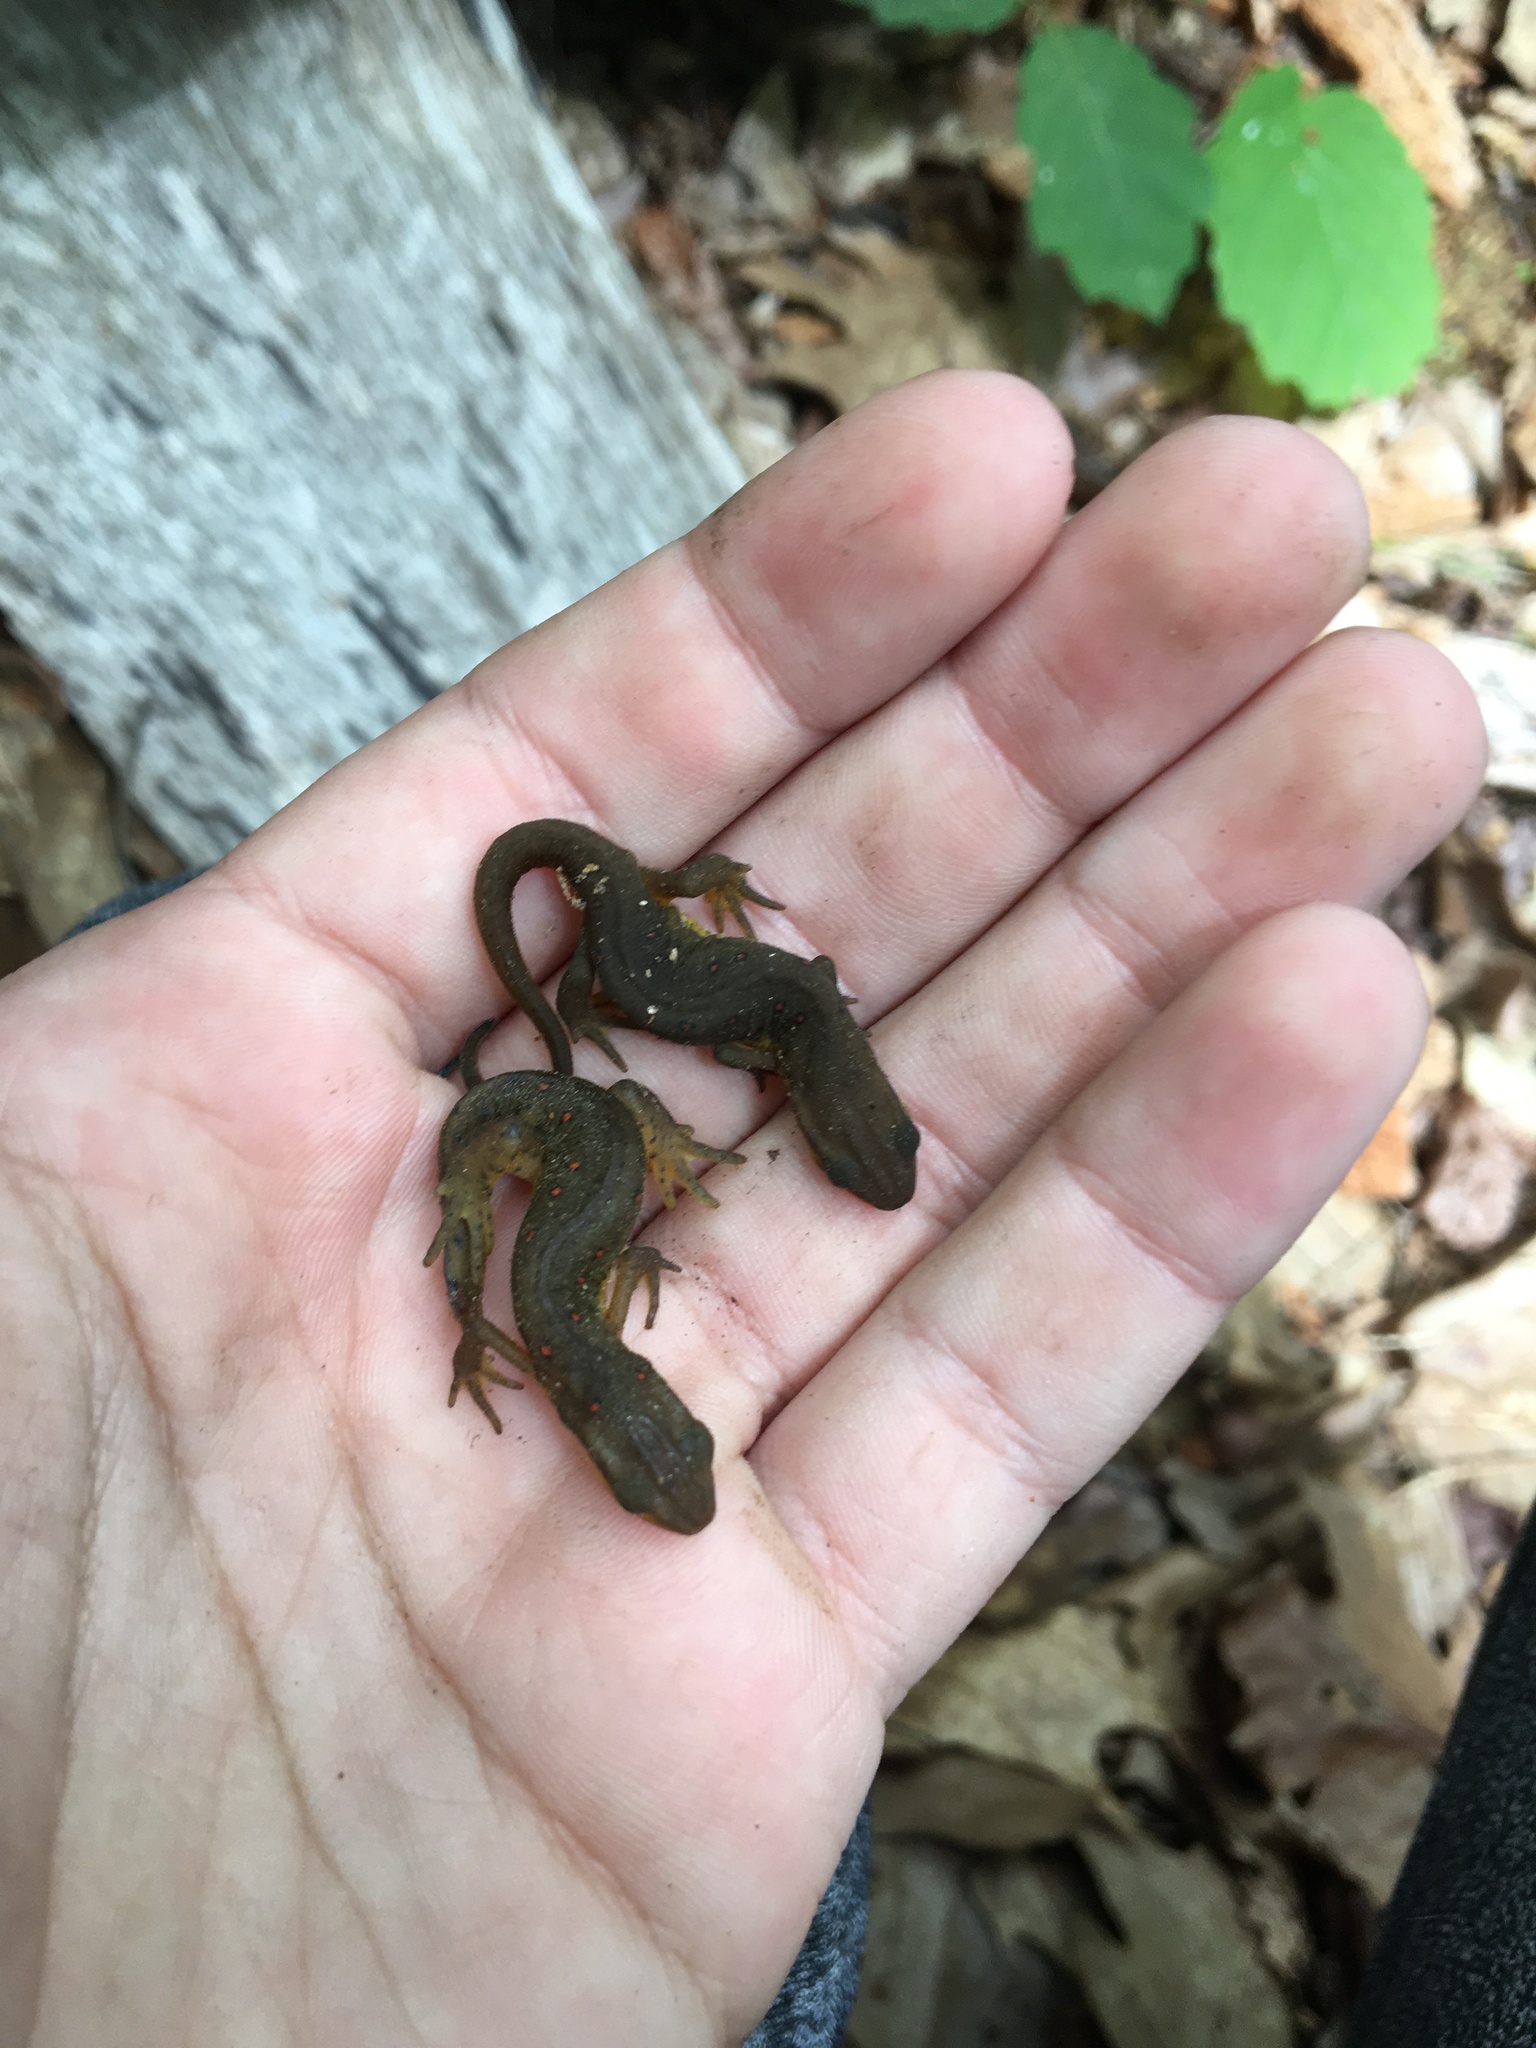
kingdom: Animalia
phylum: Chordata
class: Amphibia
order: Caudata
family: Salamandridae
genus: Notophthalmus
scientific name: Notophthalmus viridescens
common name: Eastern newt
